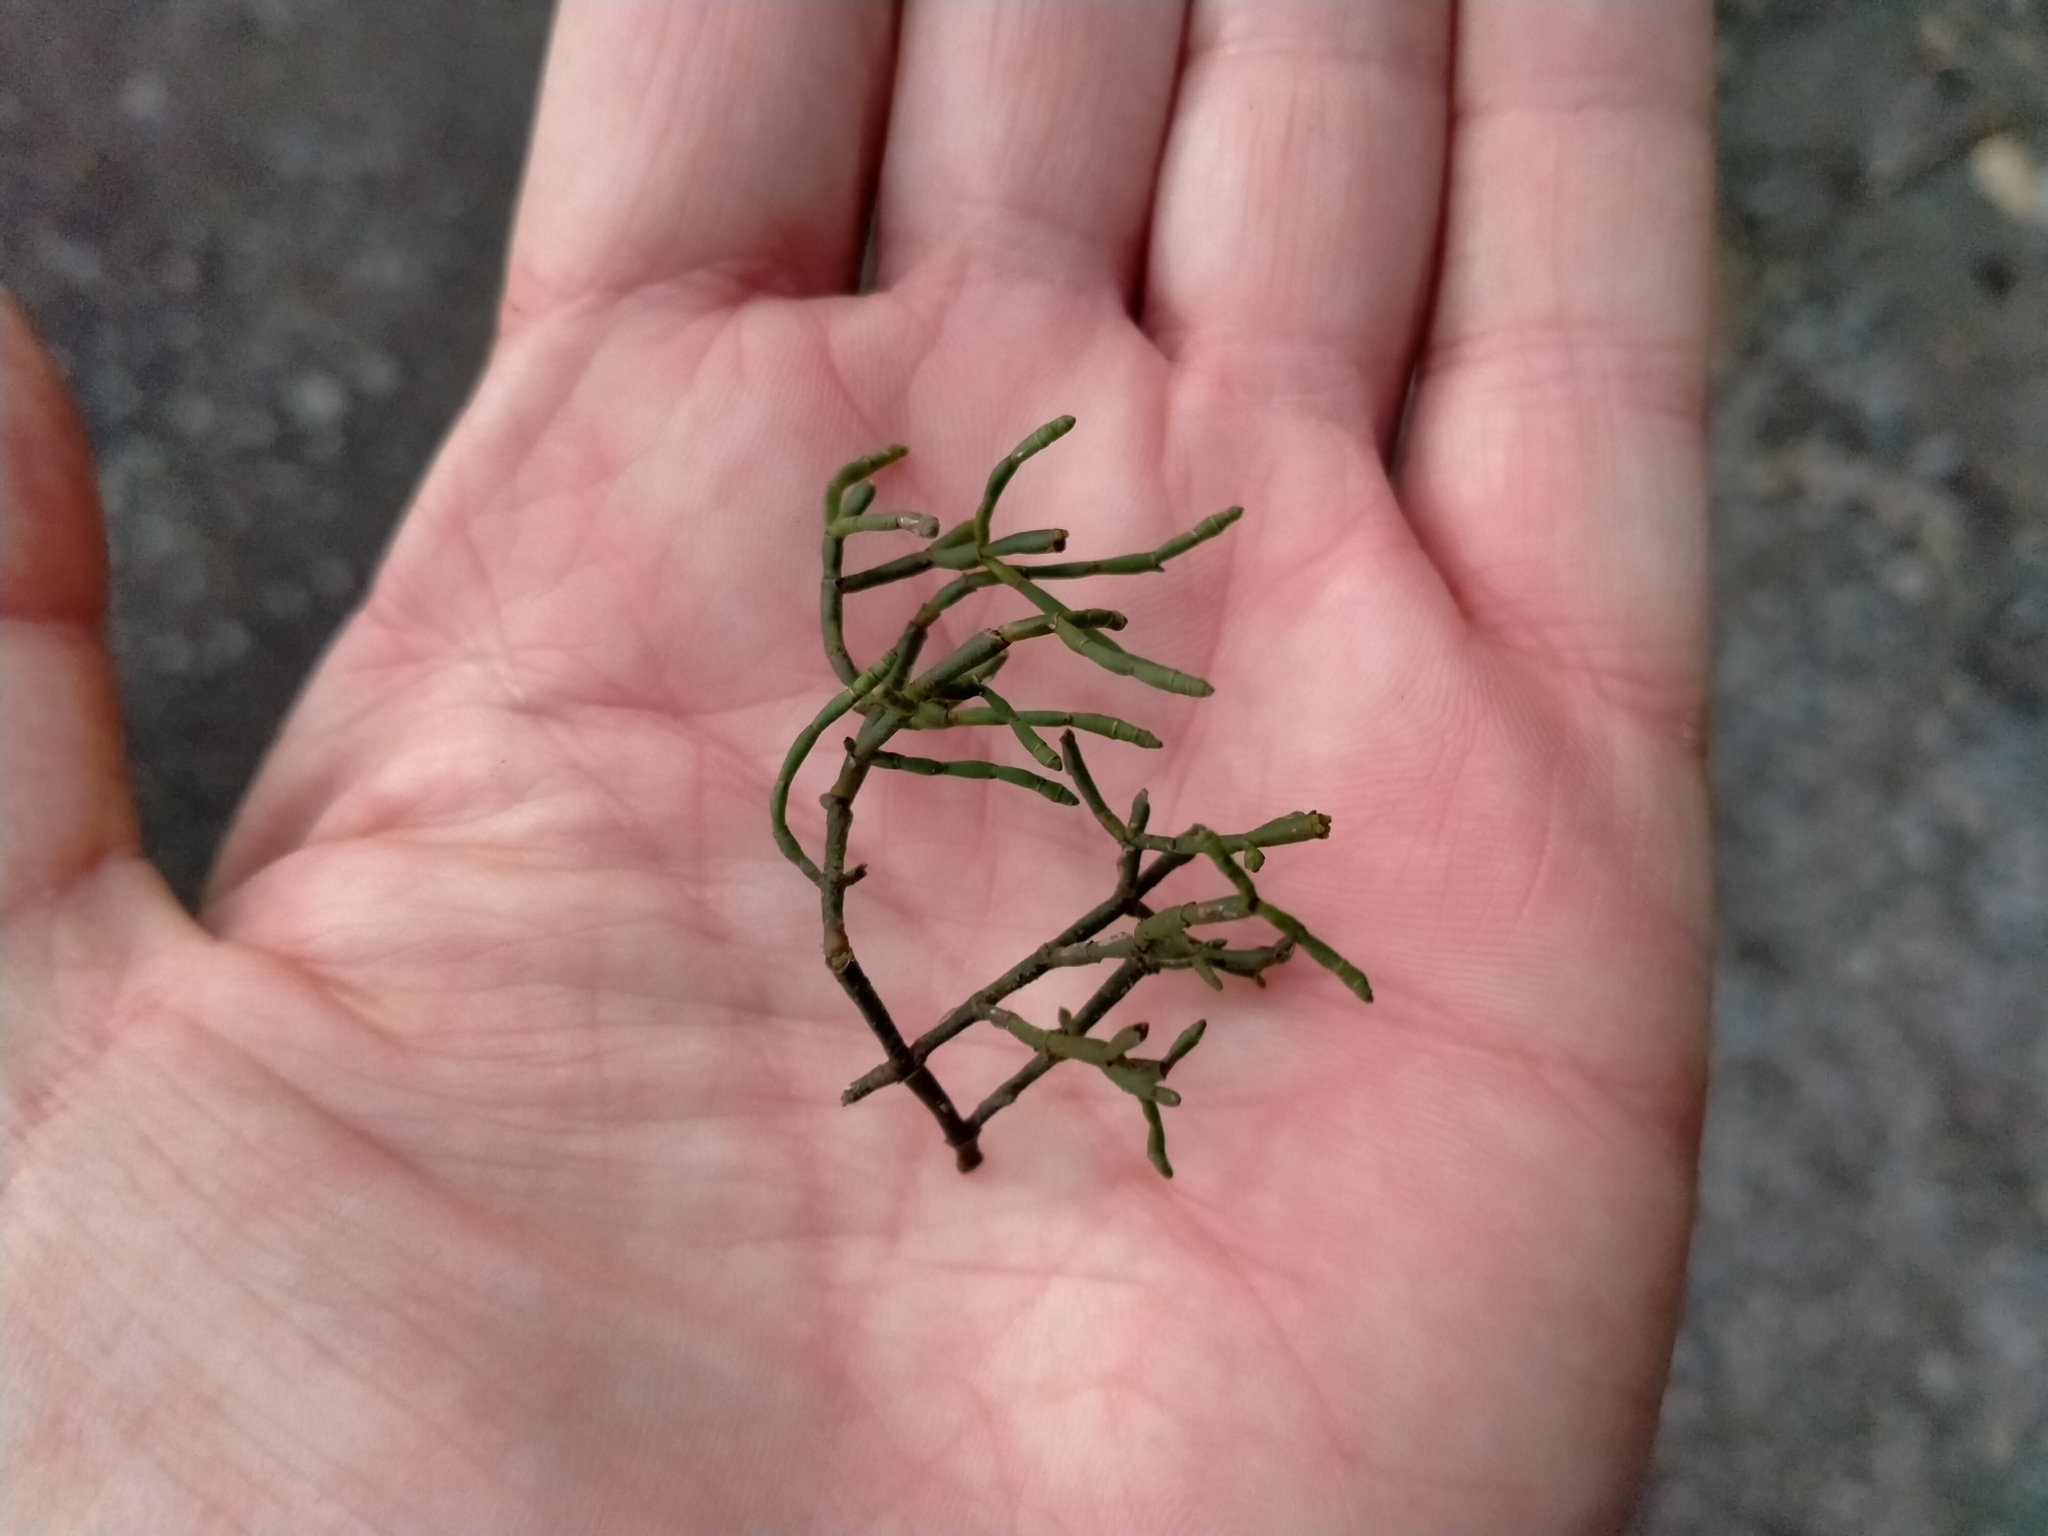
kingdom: Plantae
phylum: Tracheophyta
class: Magnoliopsida
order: Santalales
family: Viscaceae
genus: Korthalsella
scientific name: Korthalsella salicornioides
